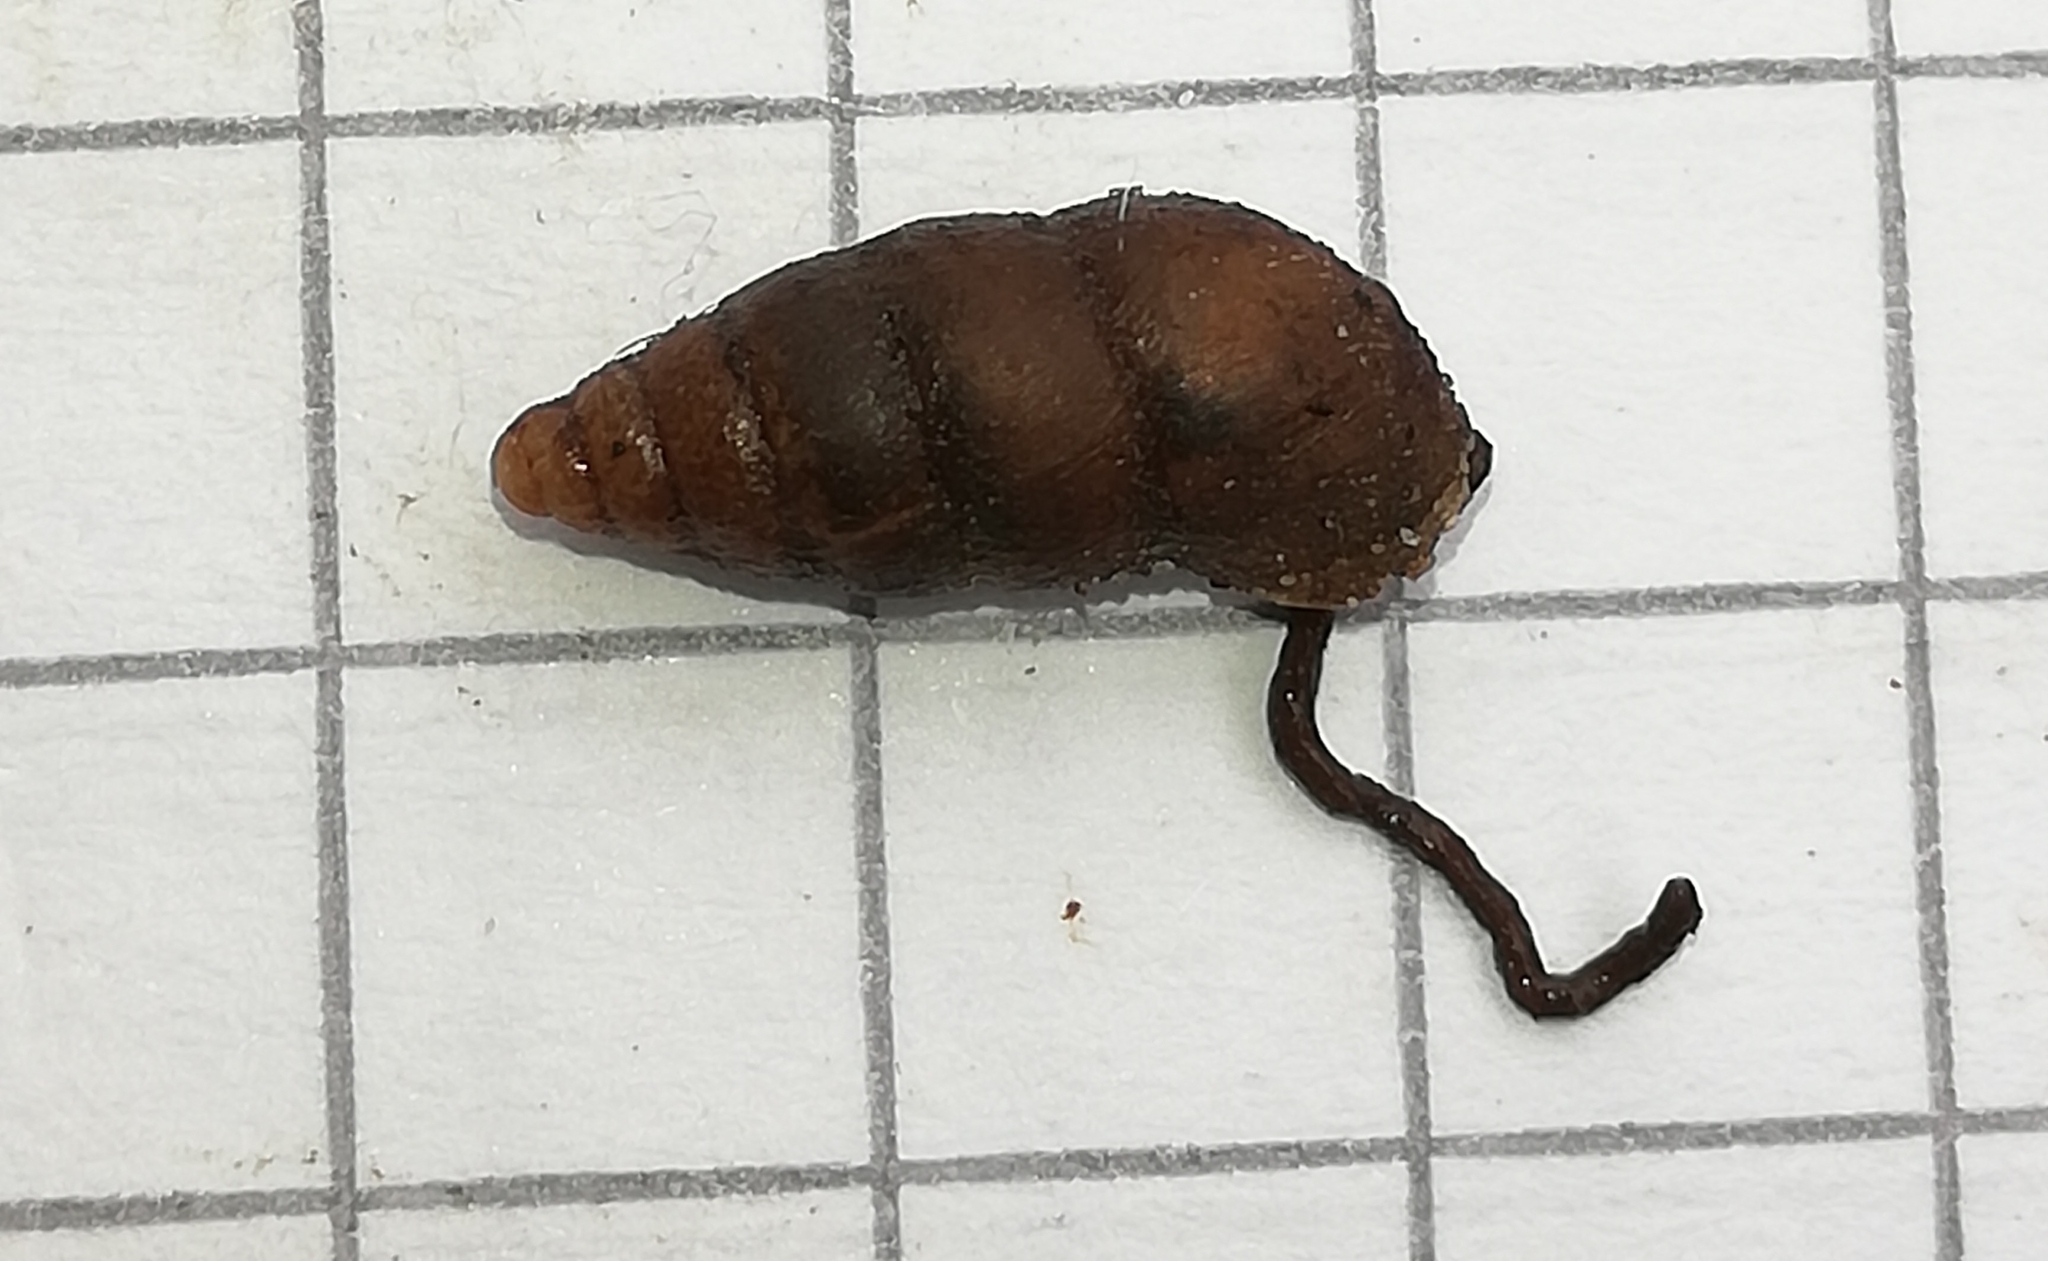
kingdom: Animalia
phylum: Mollusca
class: Gastropoda
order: Stylommatophora
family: Enidae
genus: Merdigera
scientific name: Merdigera obscura
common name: Lesser bulin
